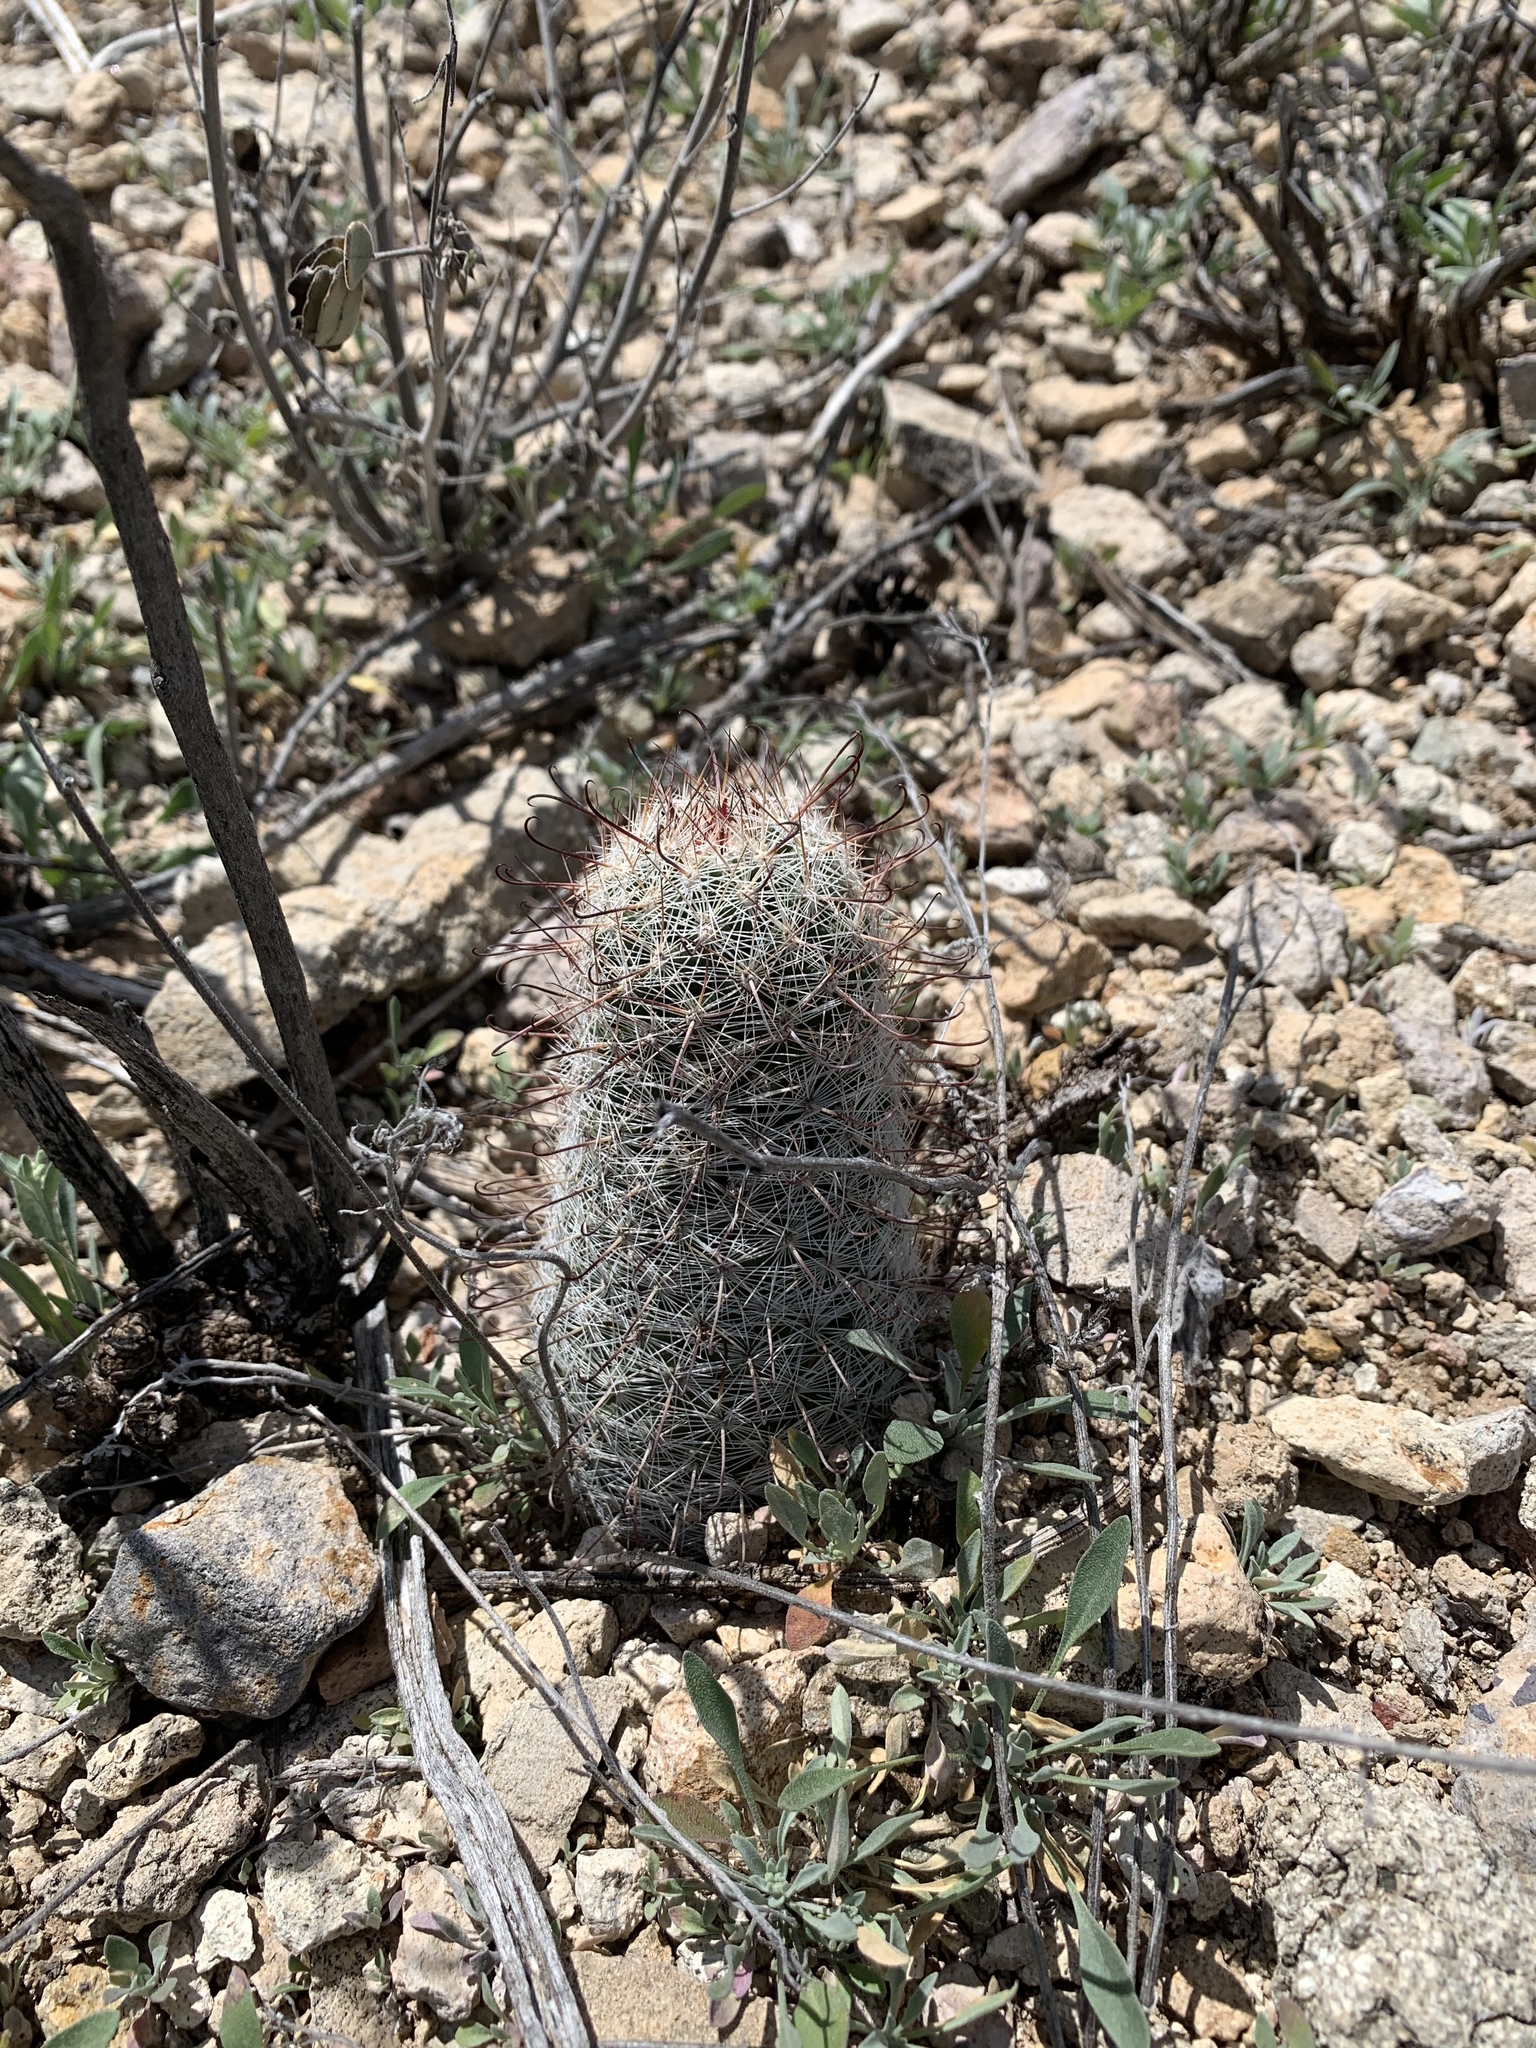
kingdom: Plantae
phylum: Tracheophyta
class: Magnoliopsida
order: Caryophyllales
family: Cactaceae
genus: Cochemiea
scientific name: Cochemiea grahamii
